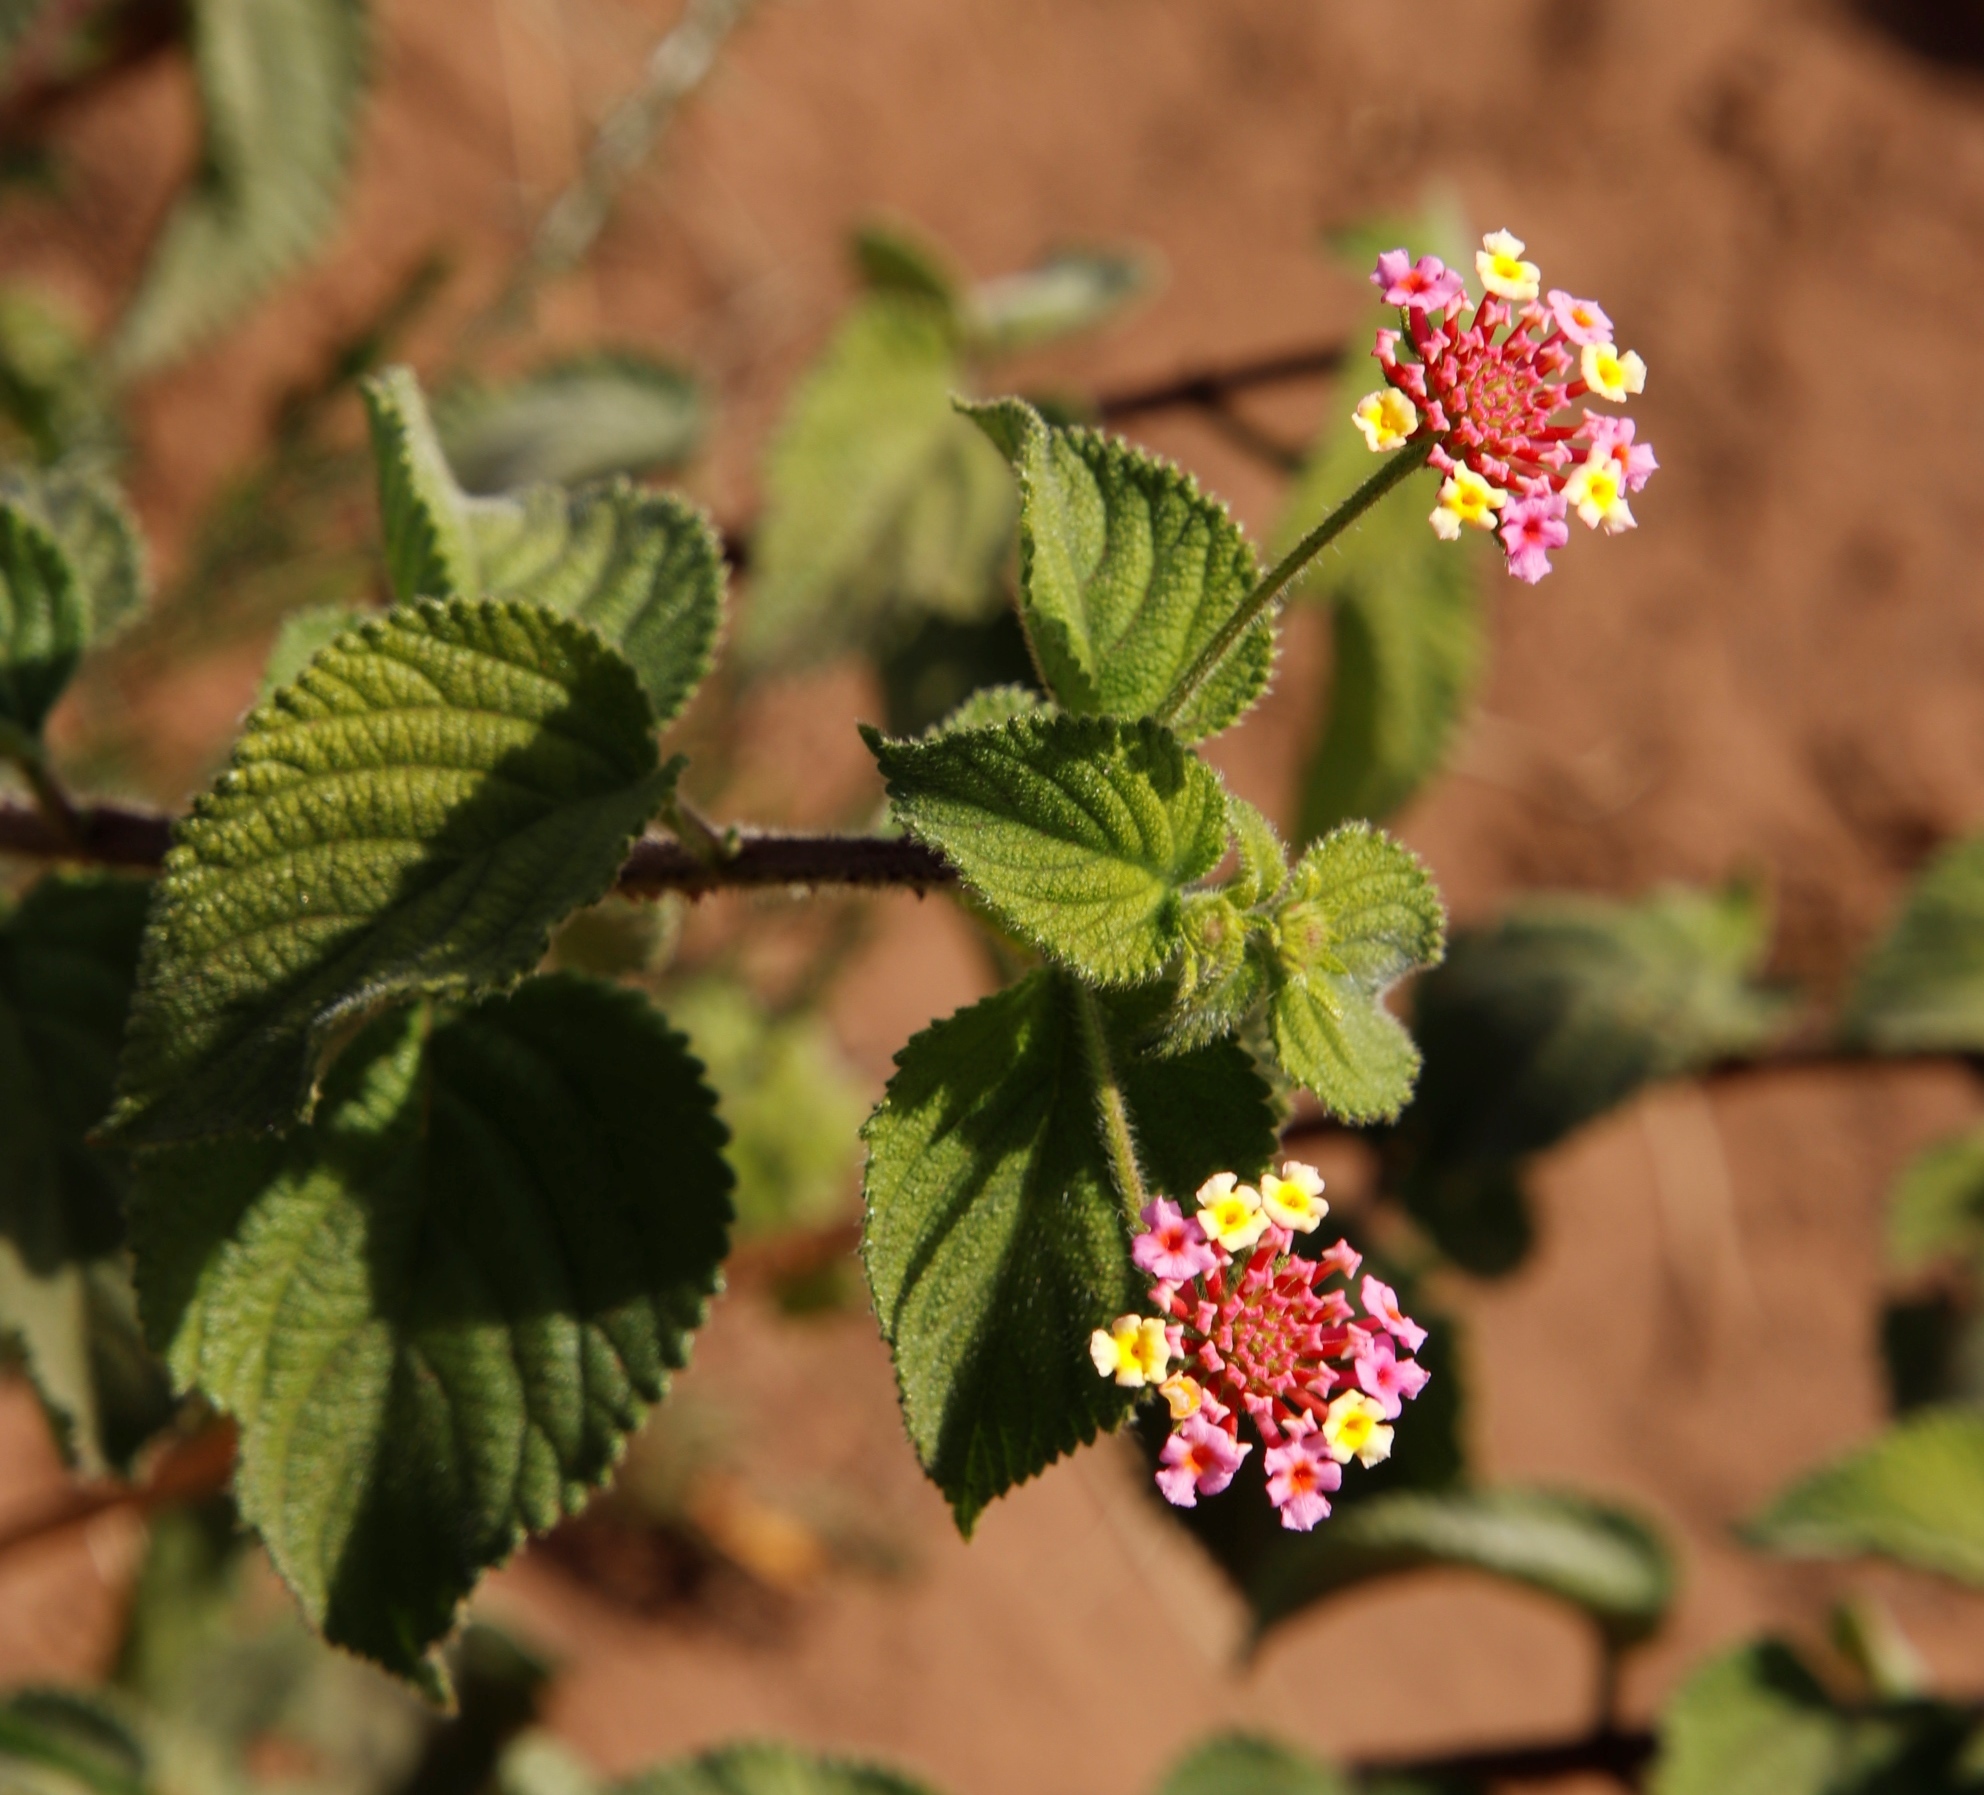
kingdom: Plantae
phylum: Tracheophyta
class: Magnoliopsida
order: Lamiales
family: Verbenaceae
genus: Lantana
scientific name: Lantana camara
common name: Lantana
